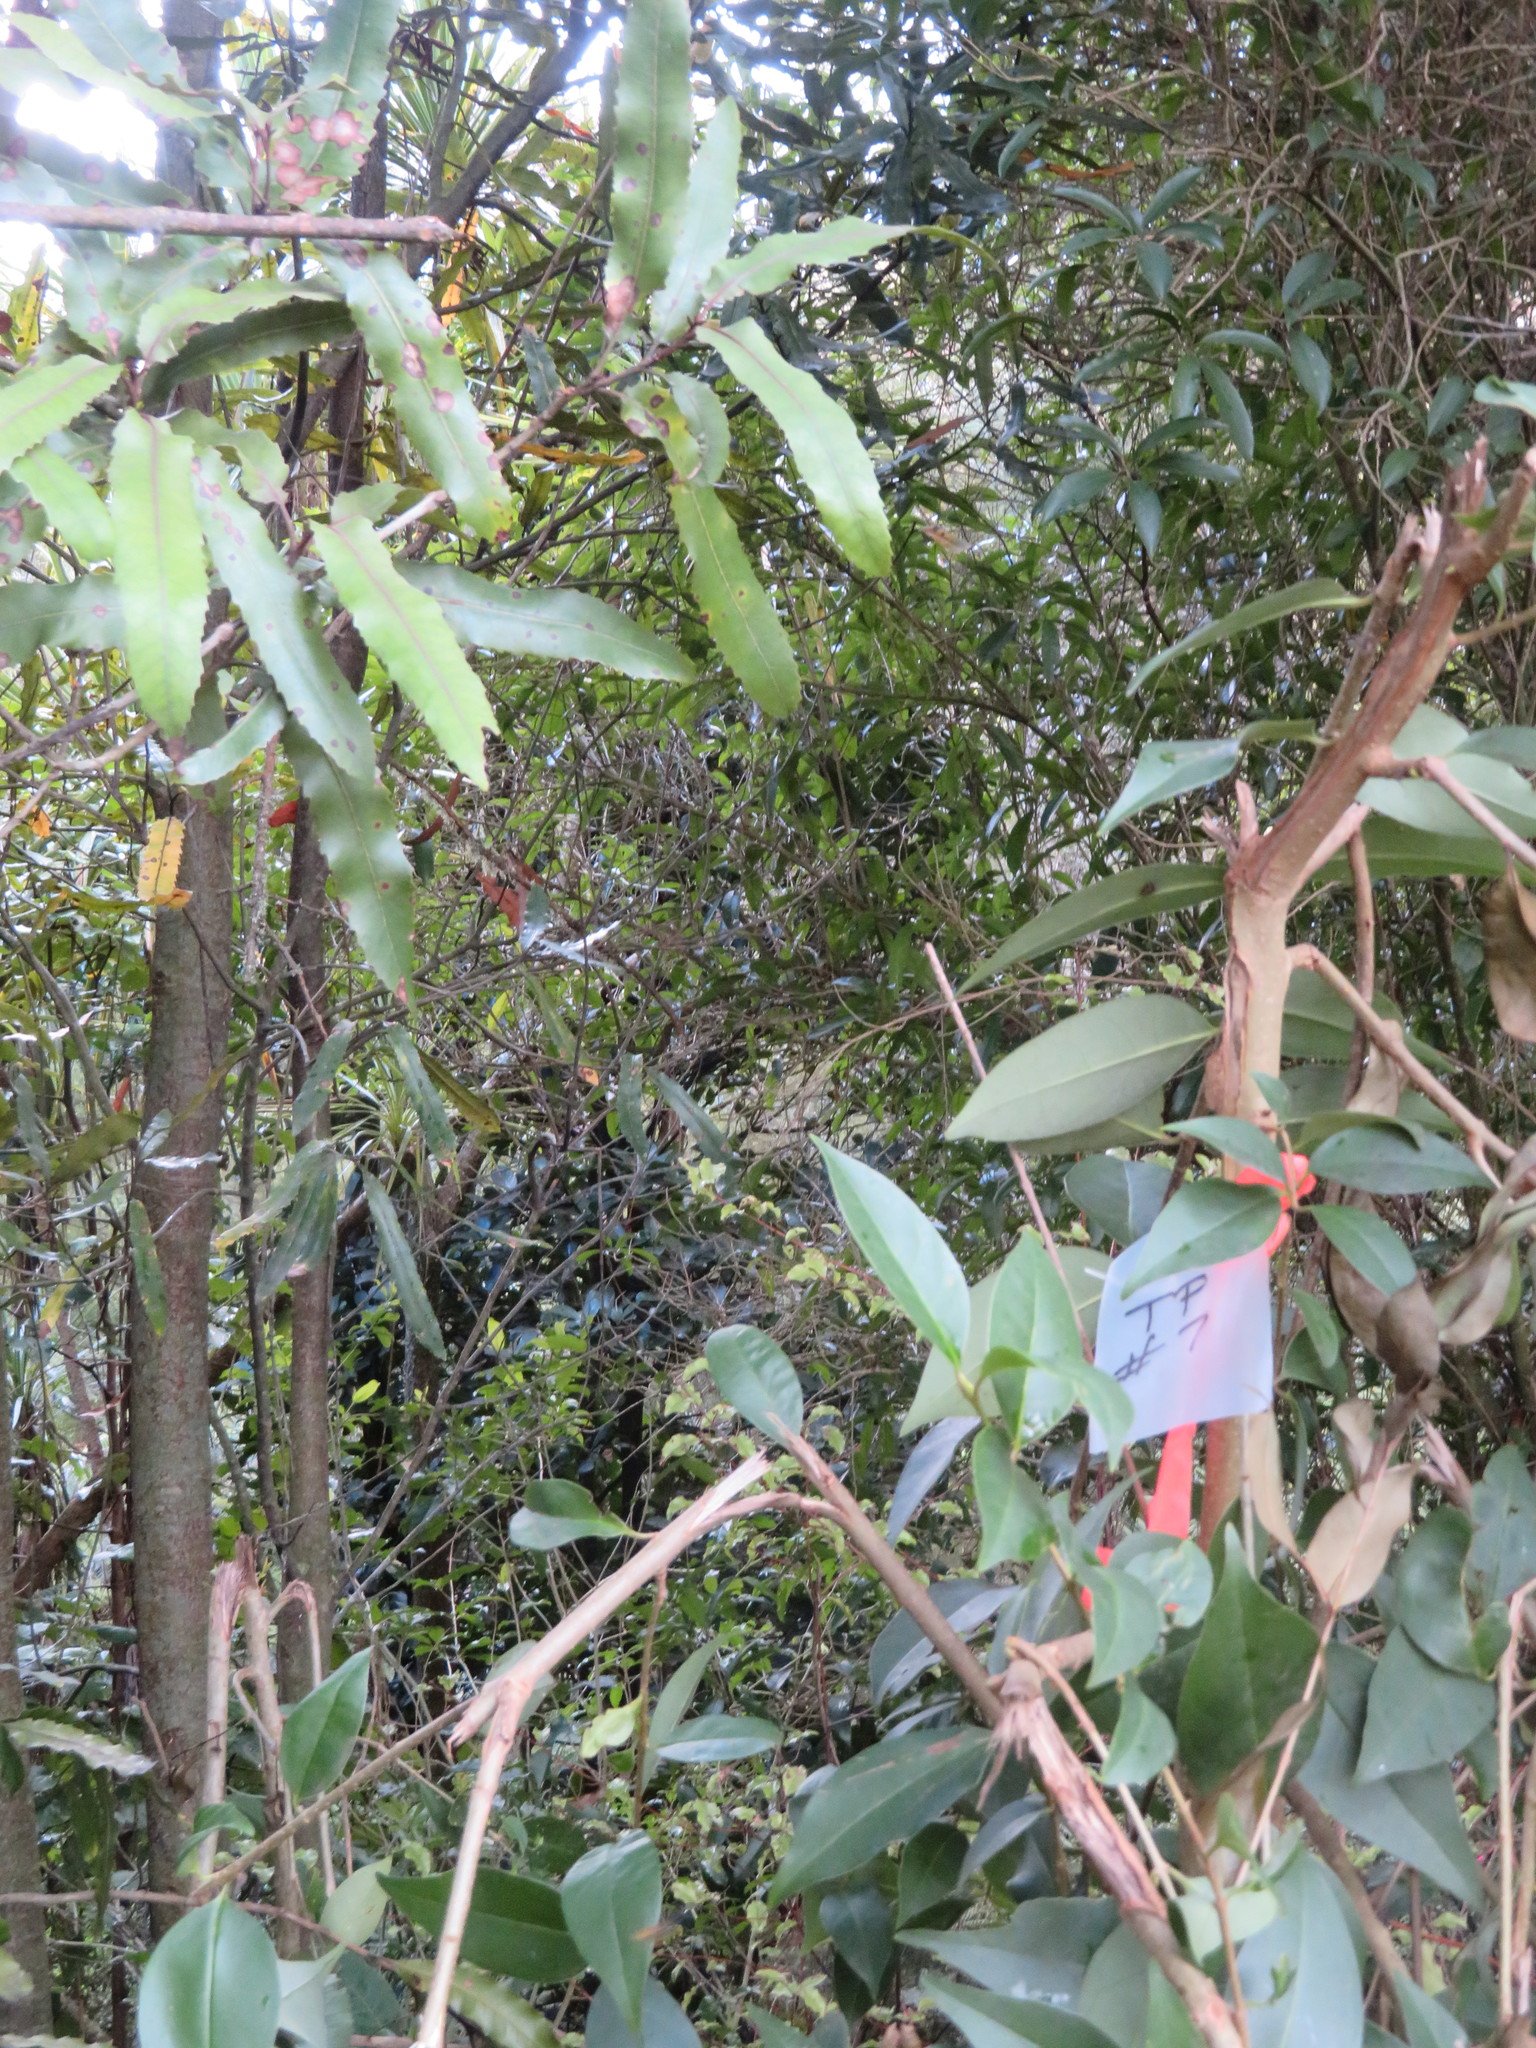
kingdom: Plantae
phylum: Tracheophyta
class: Magnoliopsida
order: Proteales
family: Proteaceae
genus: Knightia
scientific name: Knightia excelsa
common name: New zealand-honeysuckle
